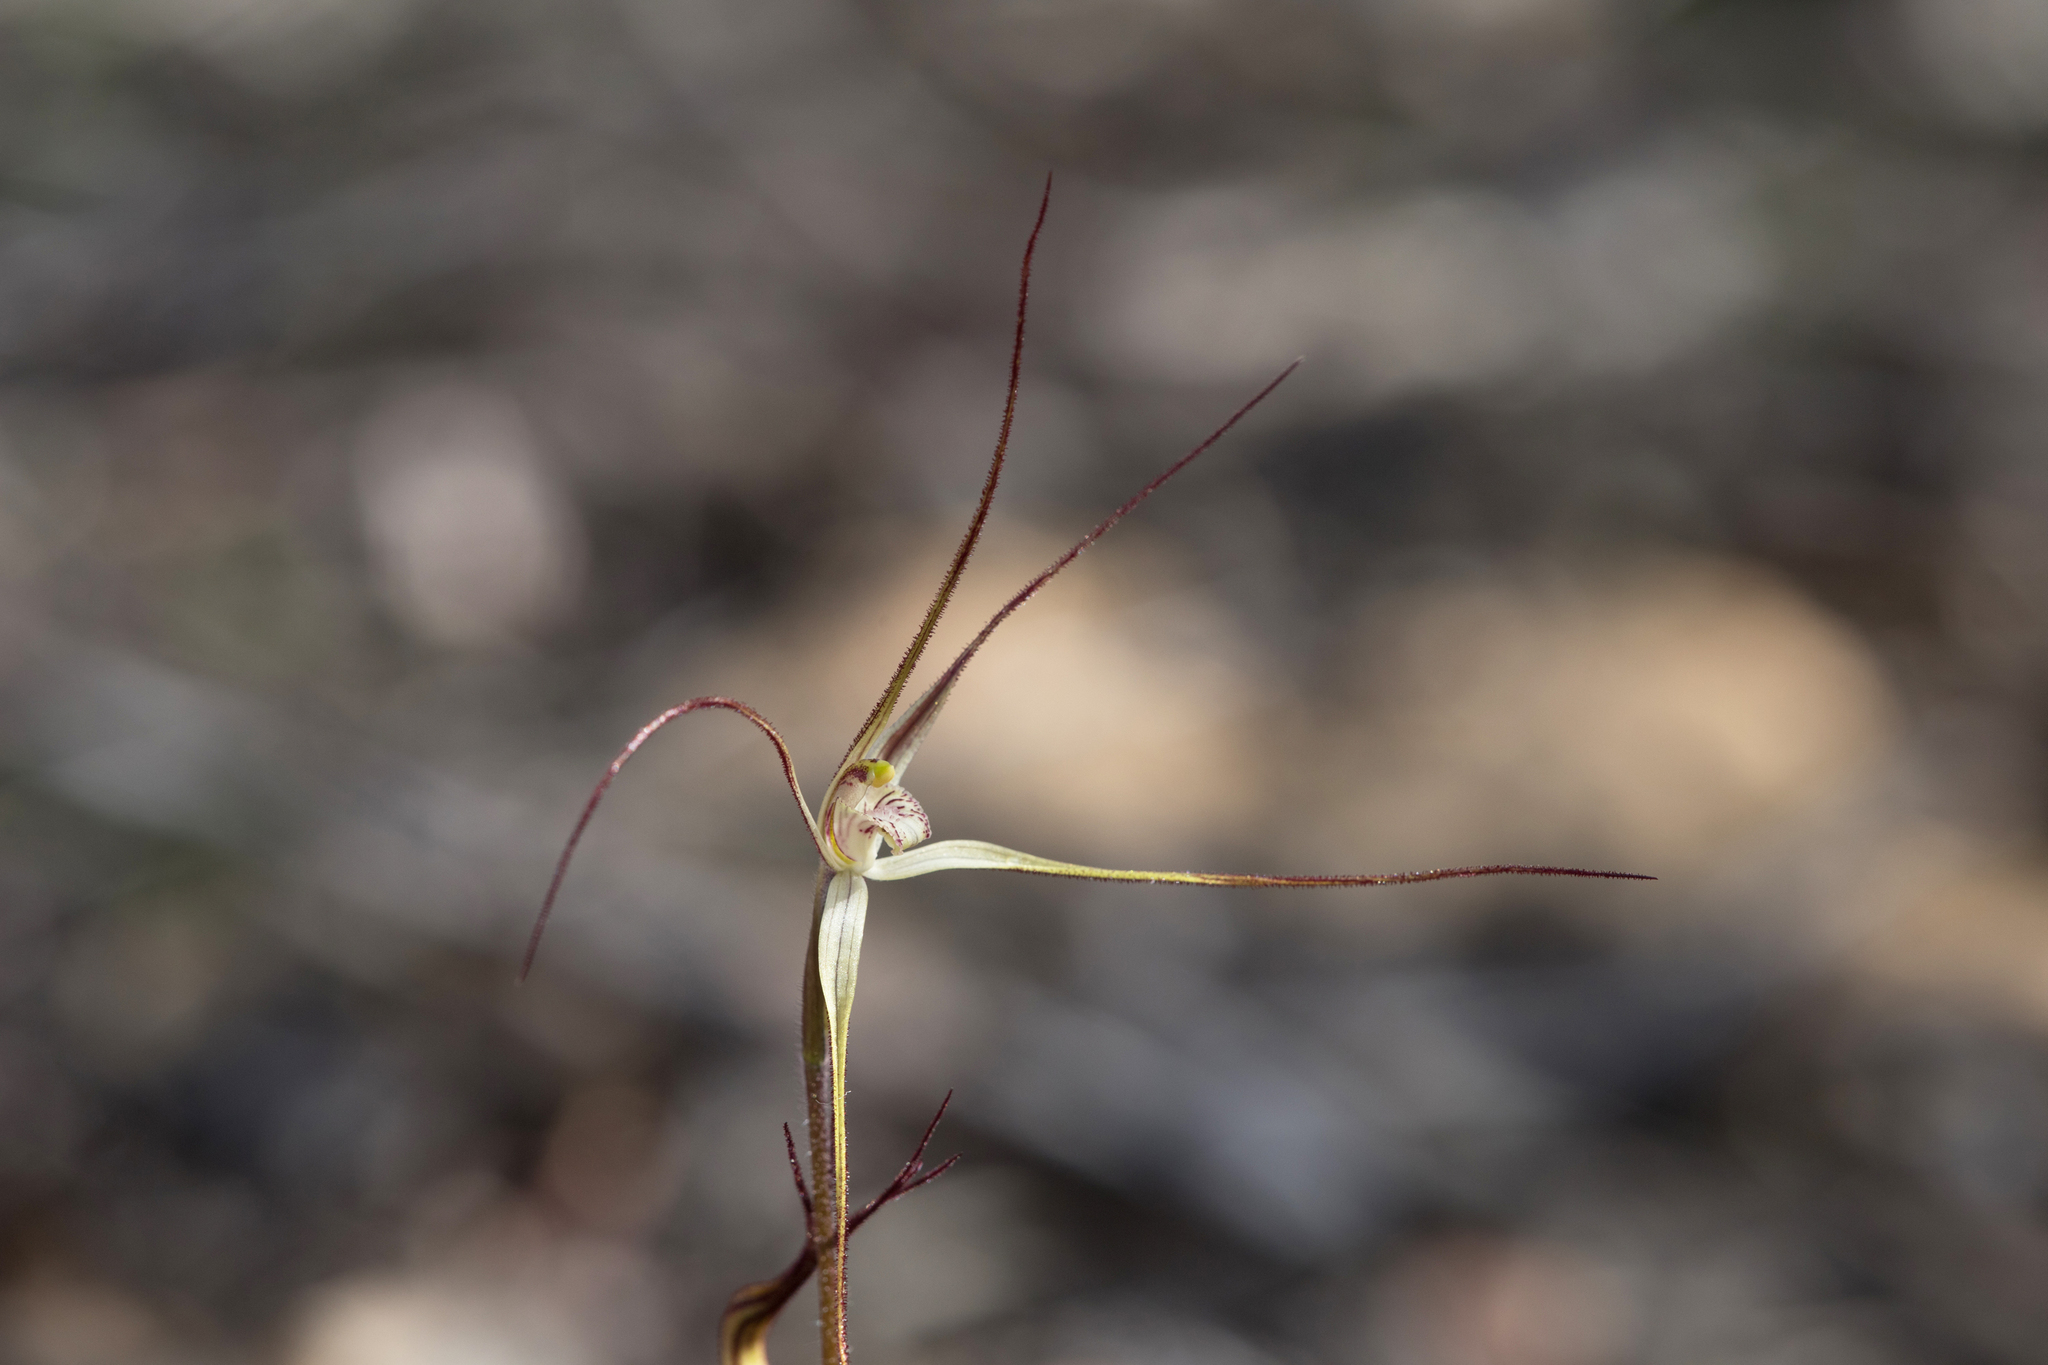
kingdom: Plantae
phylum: Tracheophyta
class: Liliopsida
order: Asparagales
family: Orchidaceae
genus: Caladenia
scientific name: Caladenia capillata
